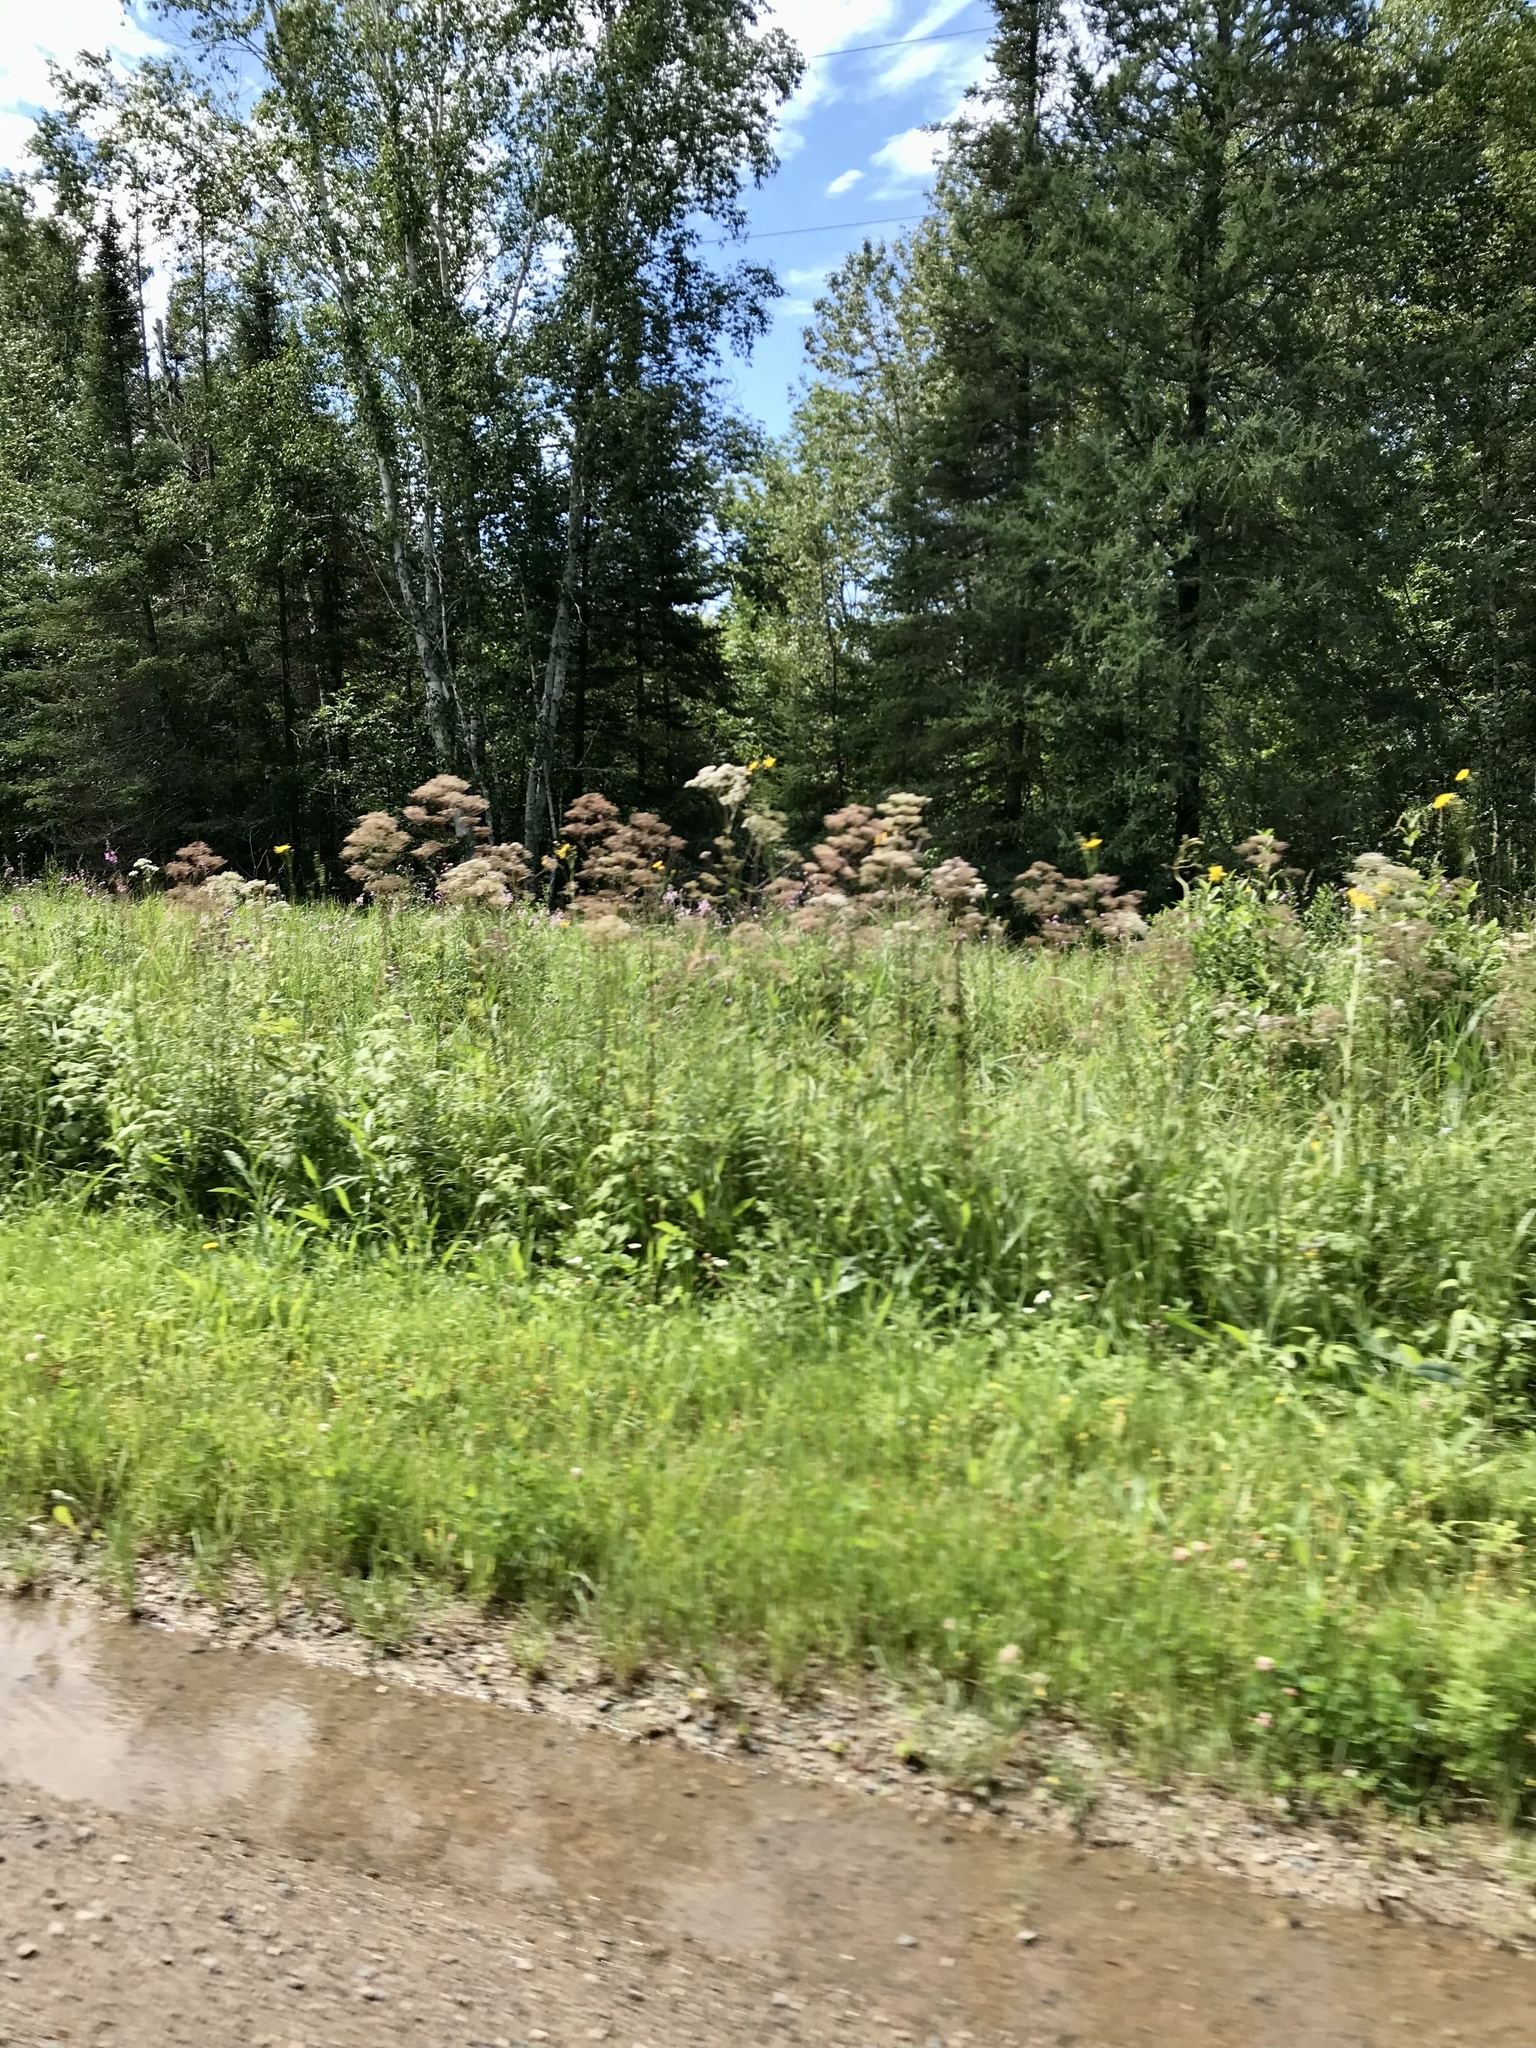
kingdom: Plantae
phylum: Tracheophyta
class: Magnoliopsida
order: Dipsacales
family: Caprifoliaceae
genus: Valeriana
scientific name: Valeriana officinalis
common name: Common valerian
